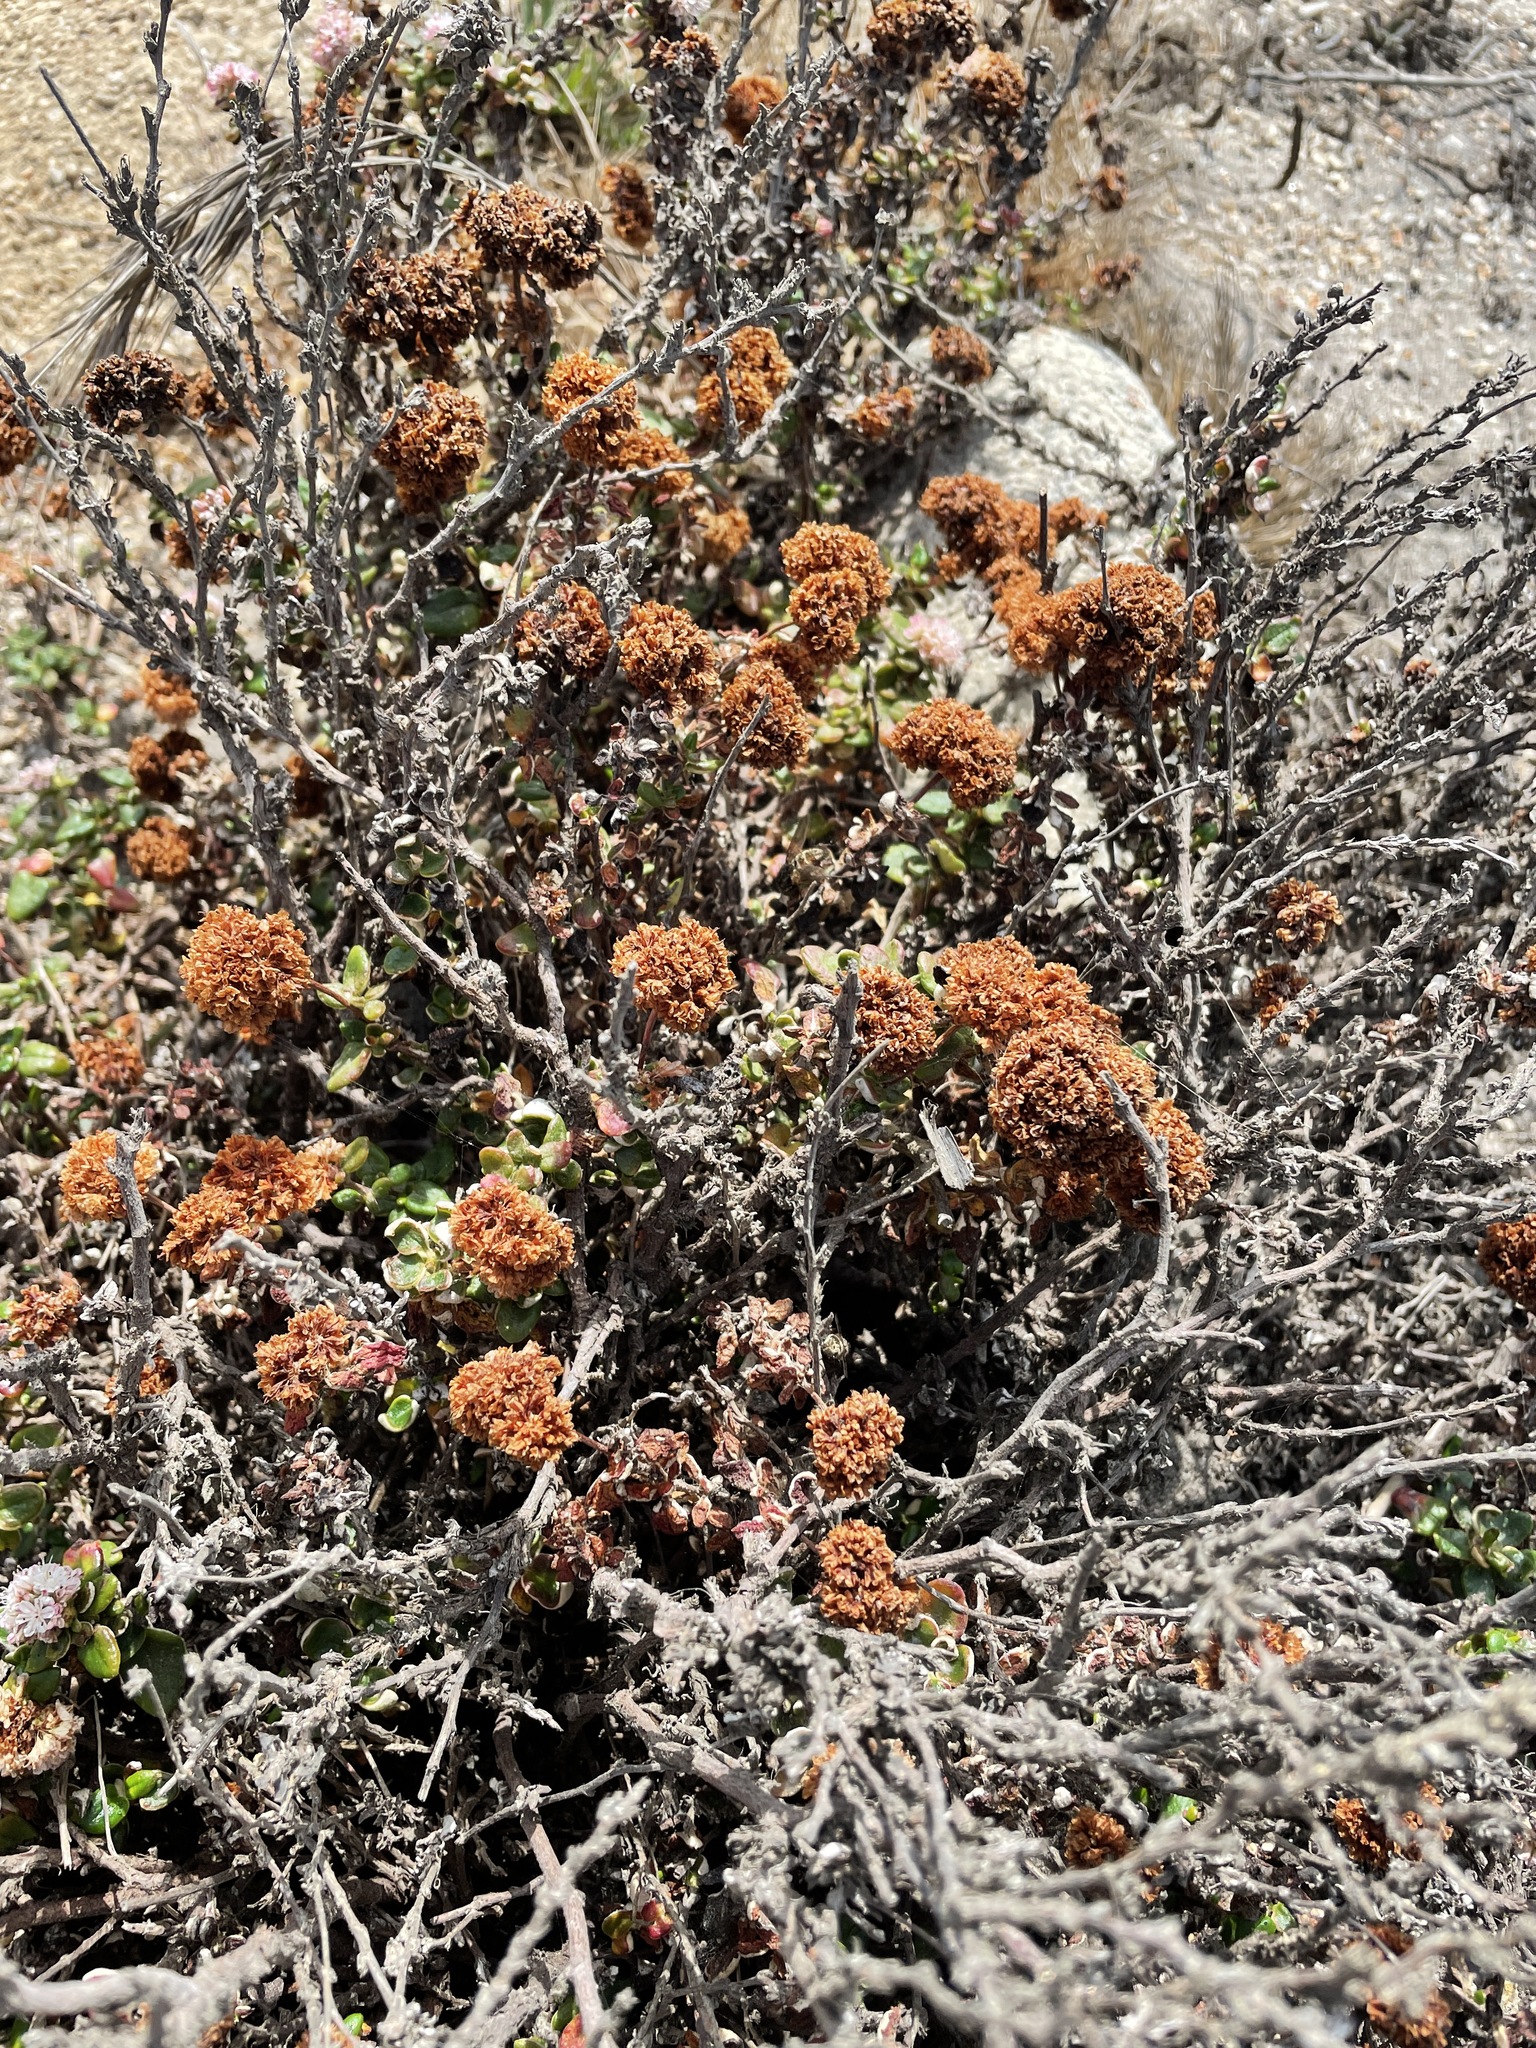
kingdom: Plantae
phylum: Tracheophyta
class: Magnoliopsida
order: Caryophyllales
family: Polygonaceae
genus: Eriogonum
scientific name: Eriogonum parvifolium
